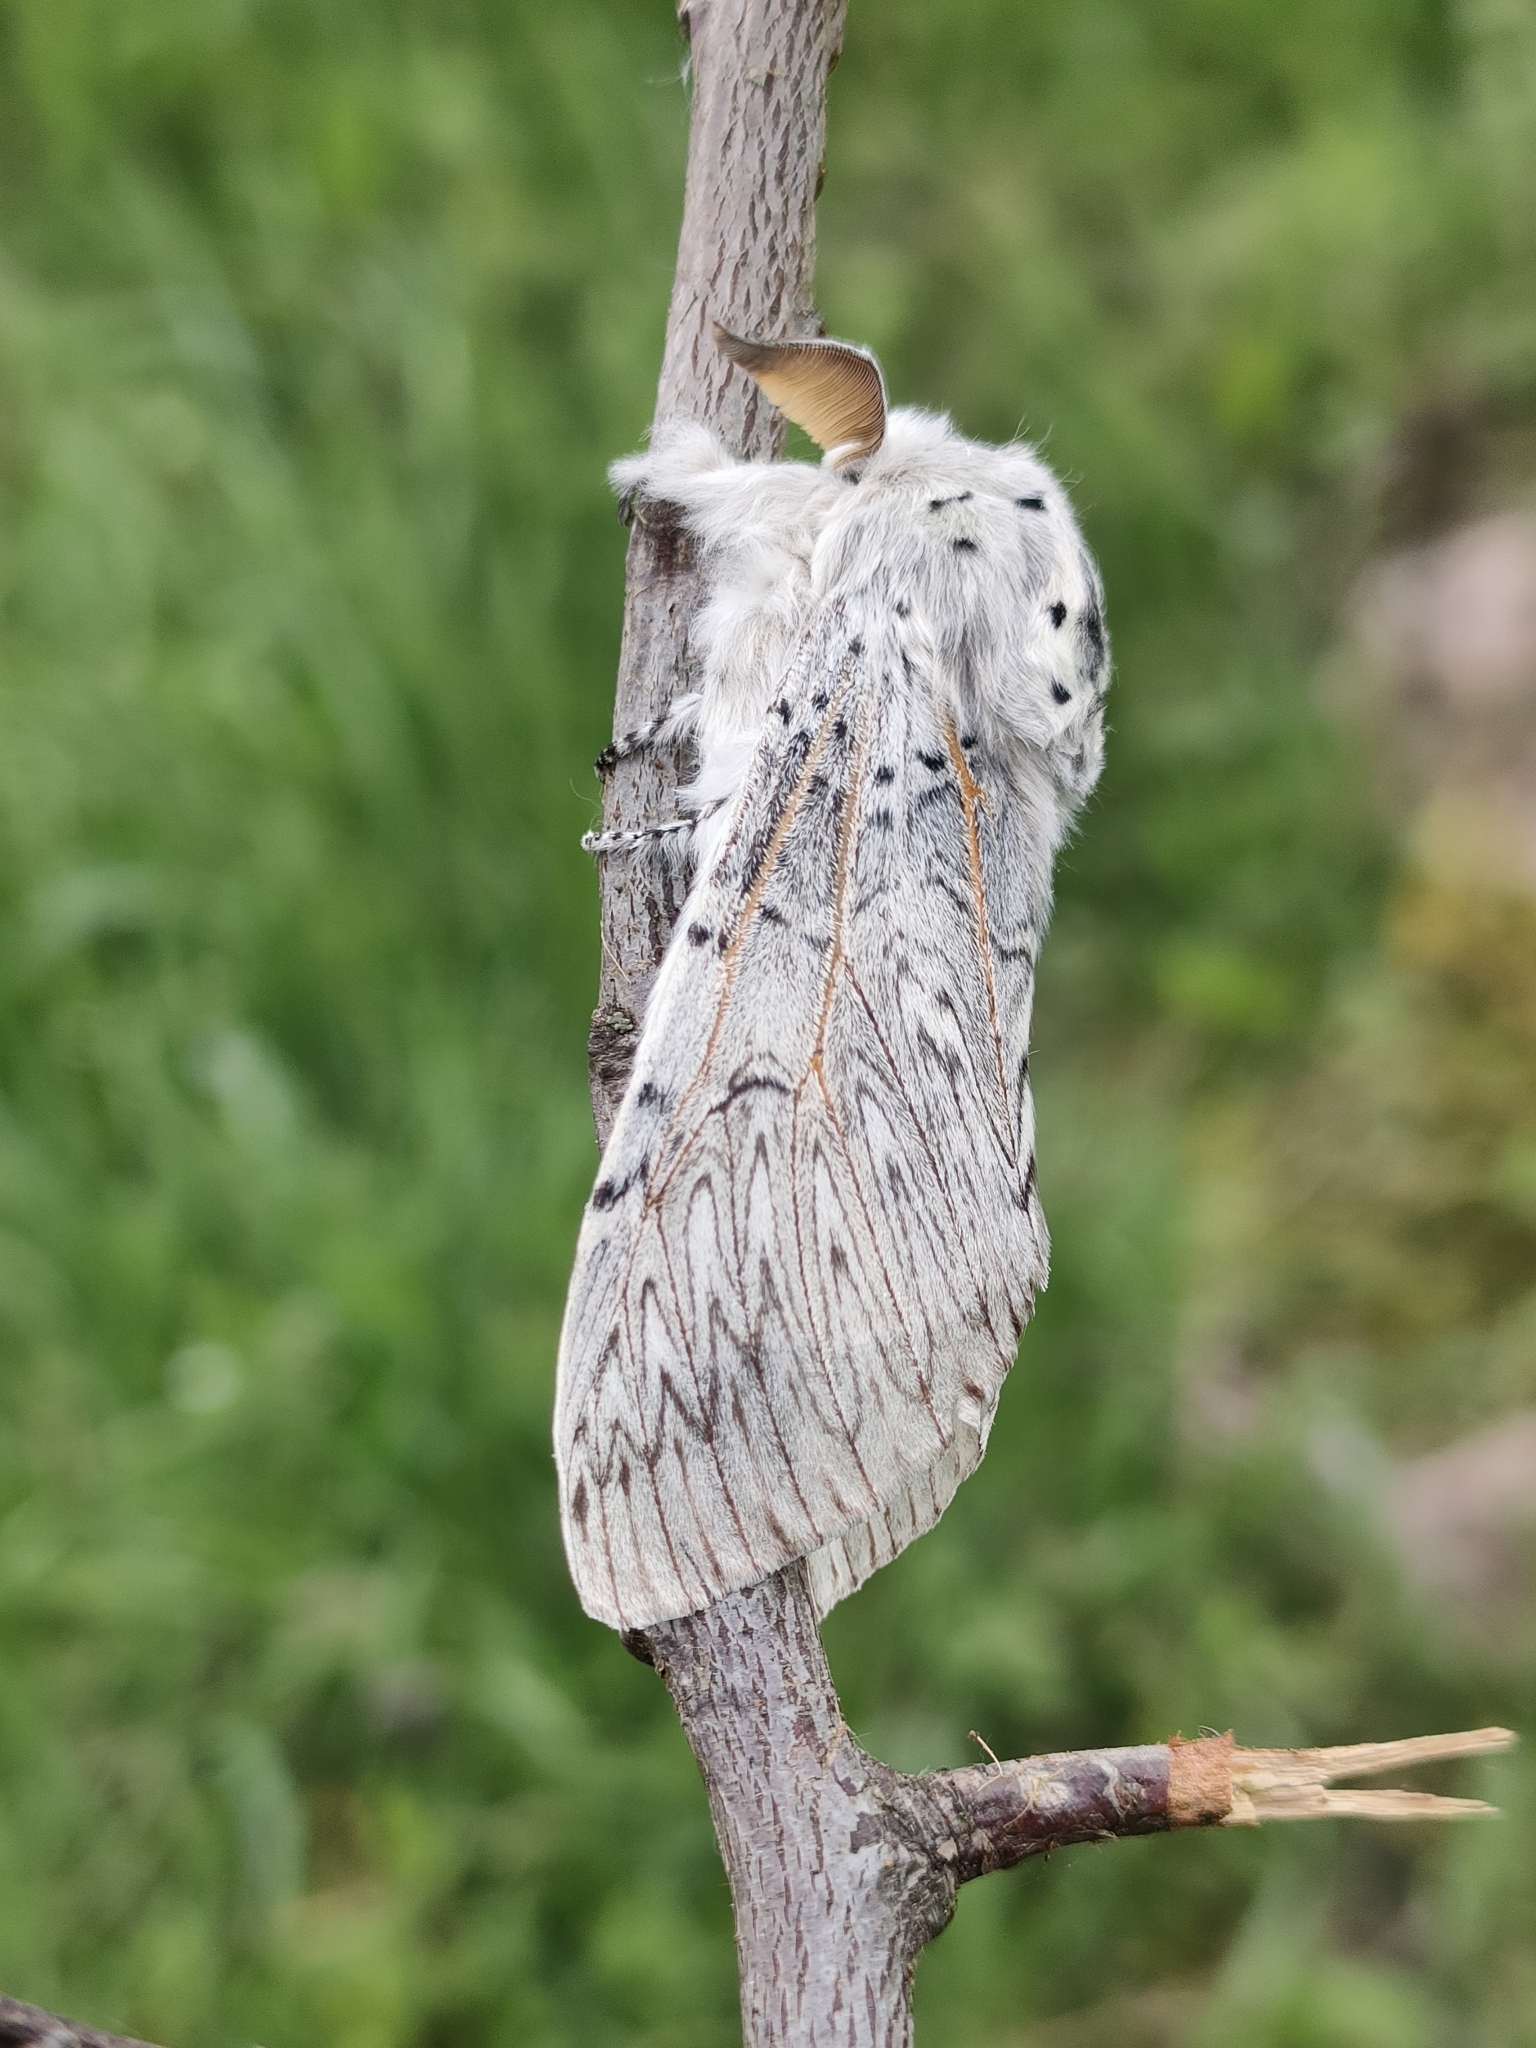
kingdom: Animalia
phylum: Arthropoda
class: Insecta
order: Lepidoptera
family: Notodontidae
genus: Cerura
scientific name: Cerura iberica
